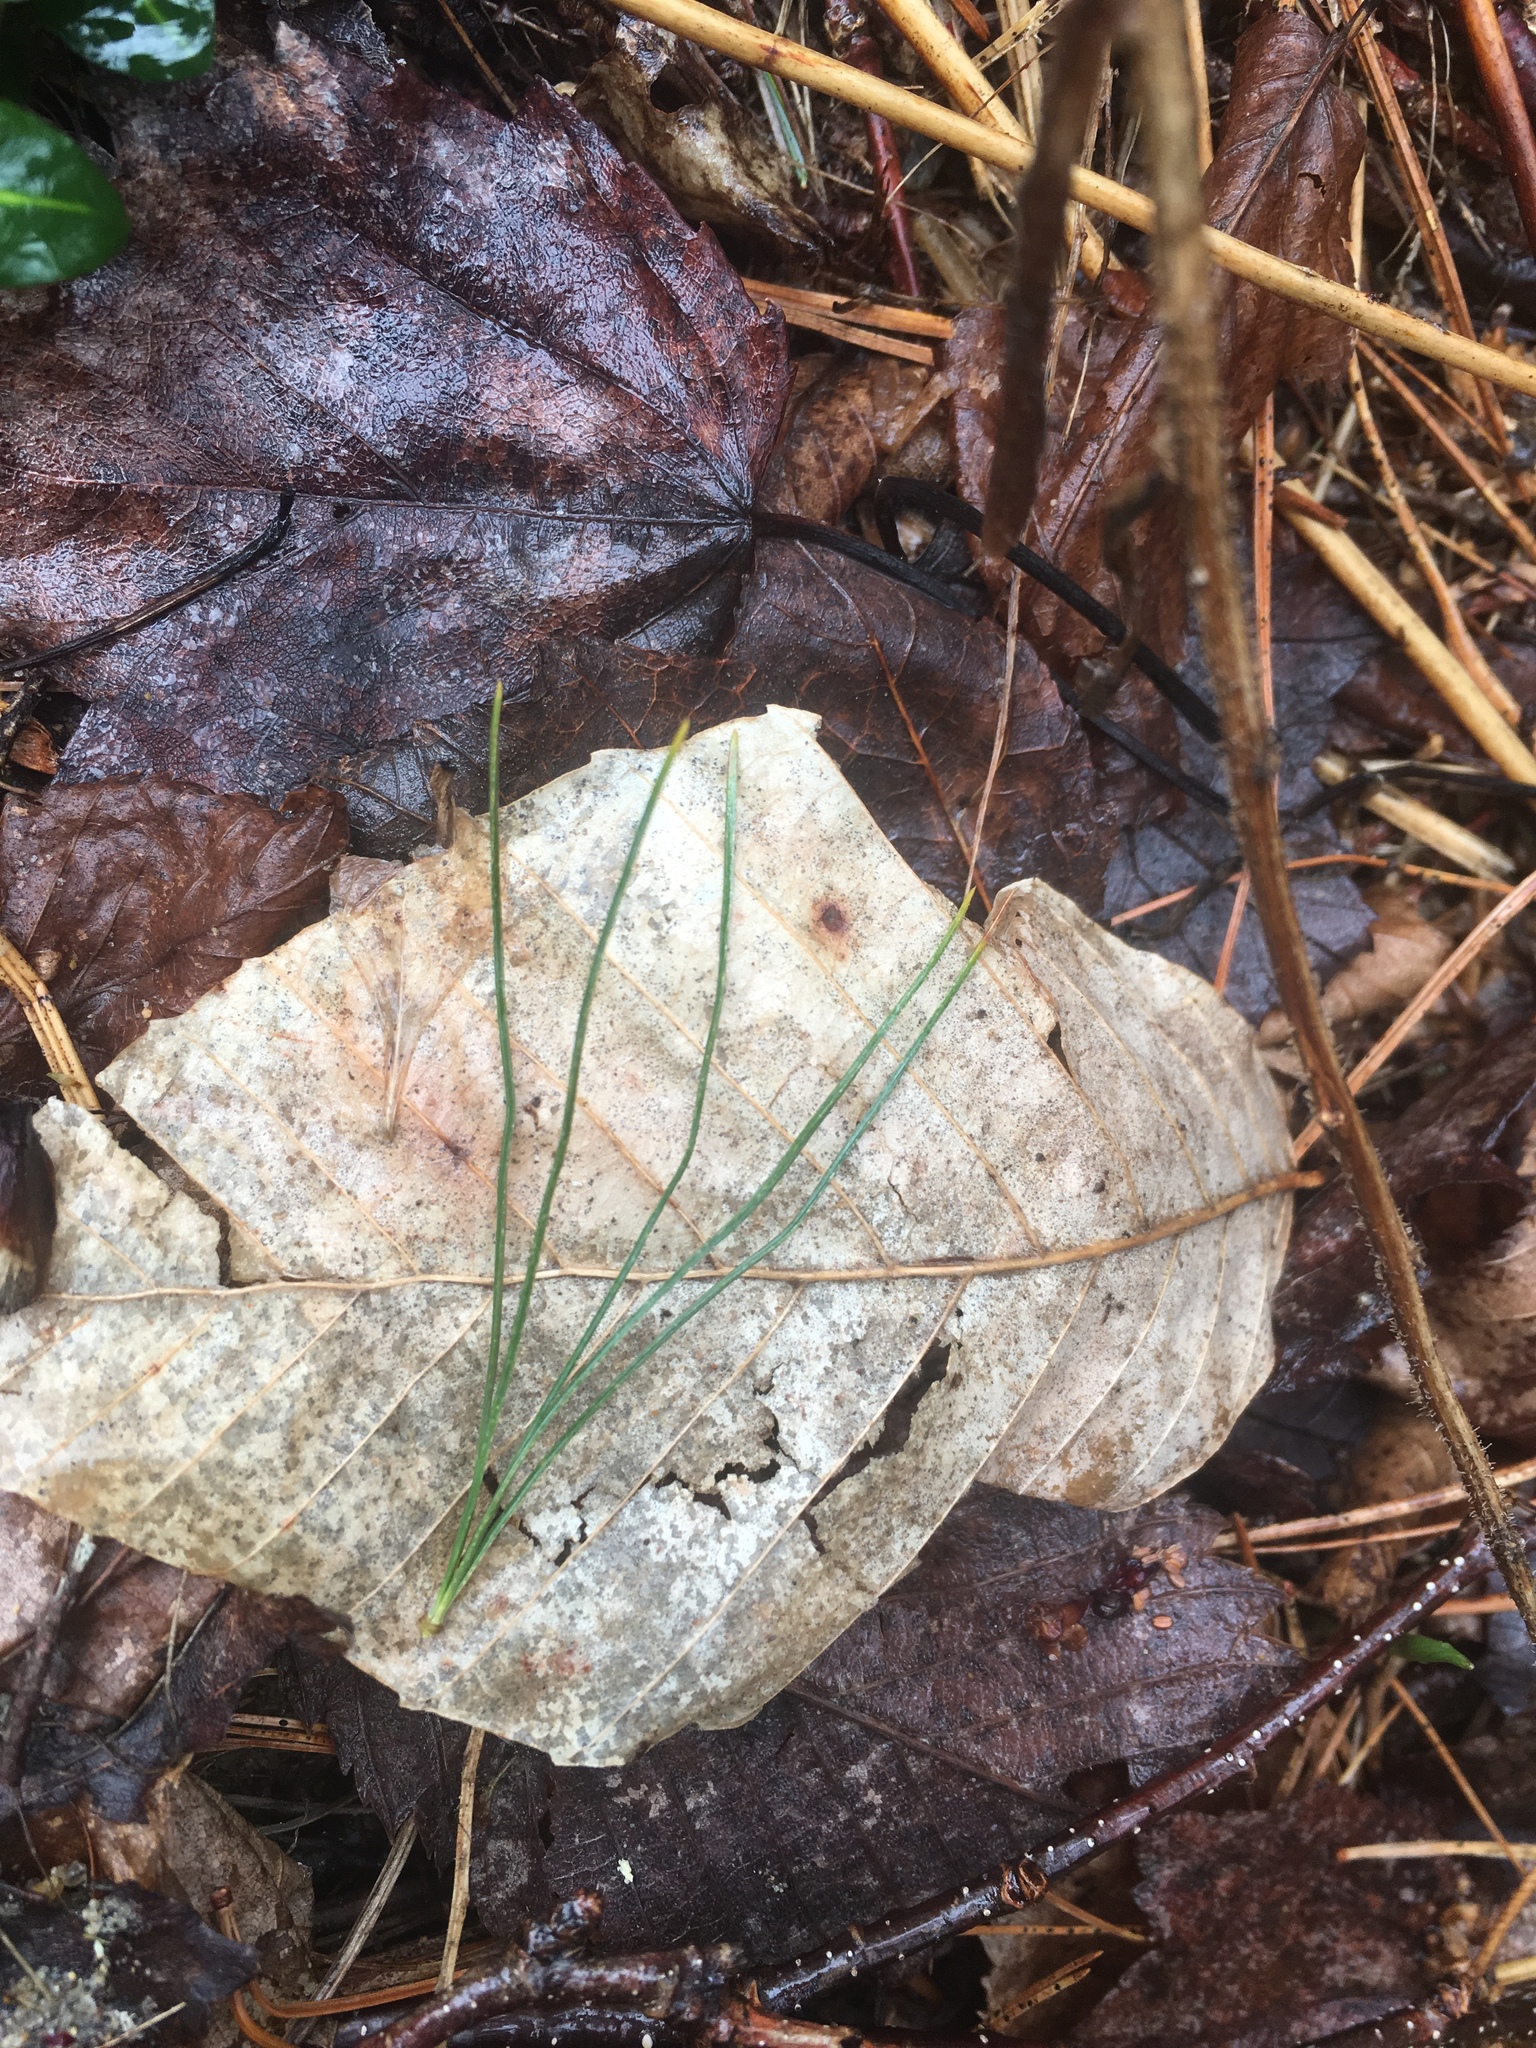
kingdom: Plantae
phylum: Tracheophyta
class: Pinopsida
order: Pinales
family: Pinaceae
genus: Pinus
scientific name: Pinus strobus
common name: Weymouth pine
